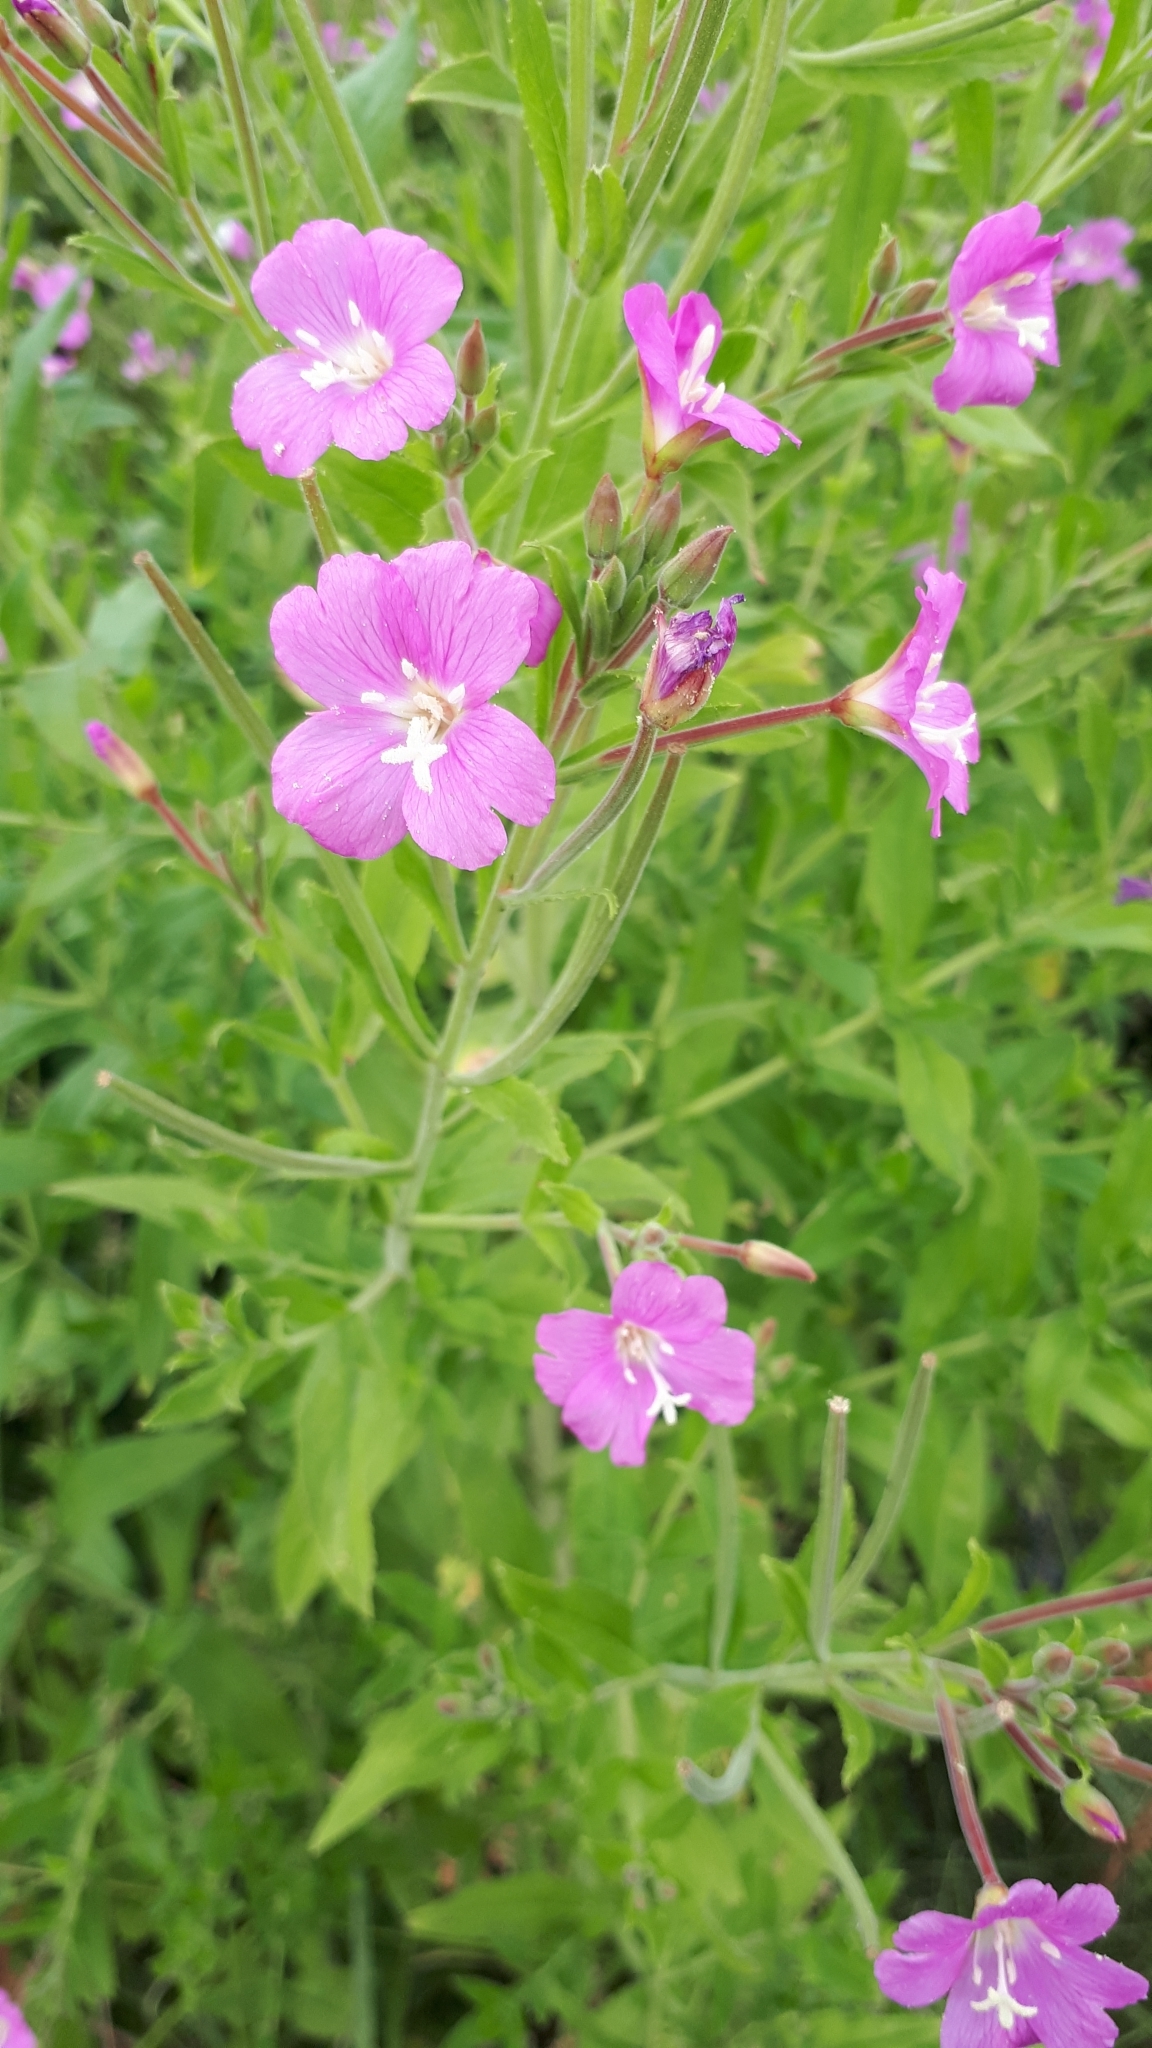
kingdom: Plantae
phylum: Tracheophyta
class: Magnoliopsida
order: Myrtales
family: Onagraceae
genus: Epilobium
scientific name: Epilobium hirsutum
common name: Great willowherb
